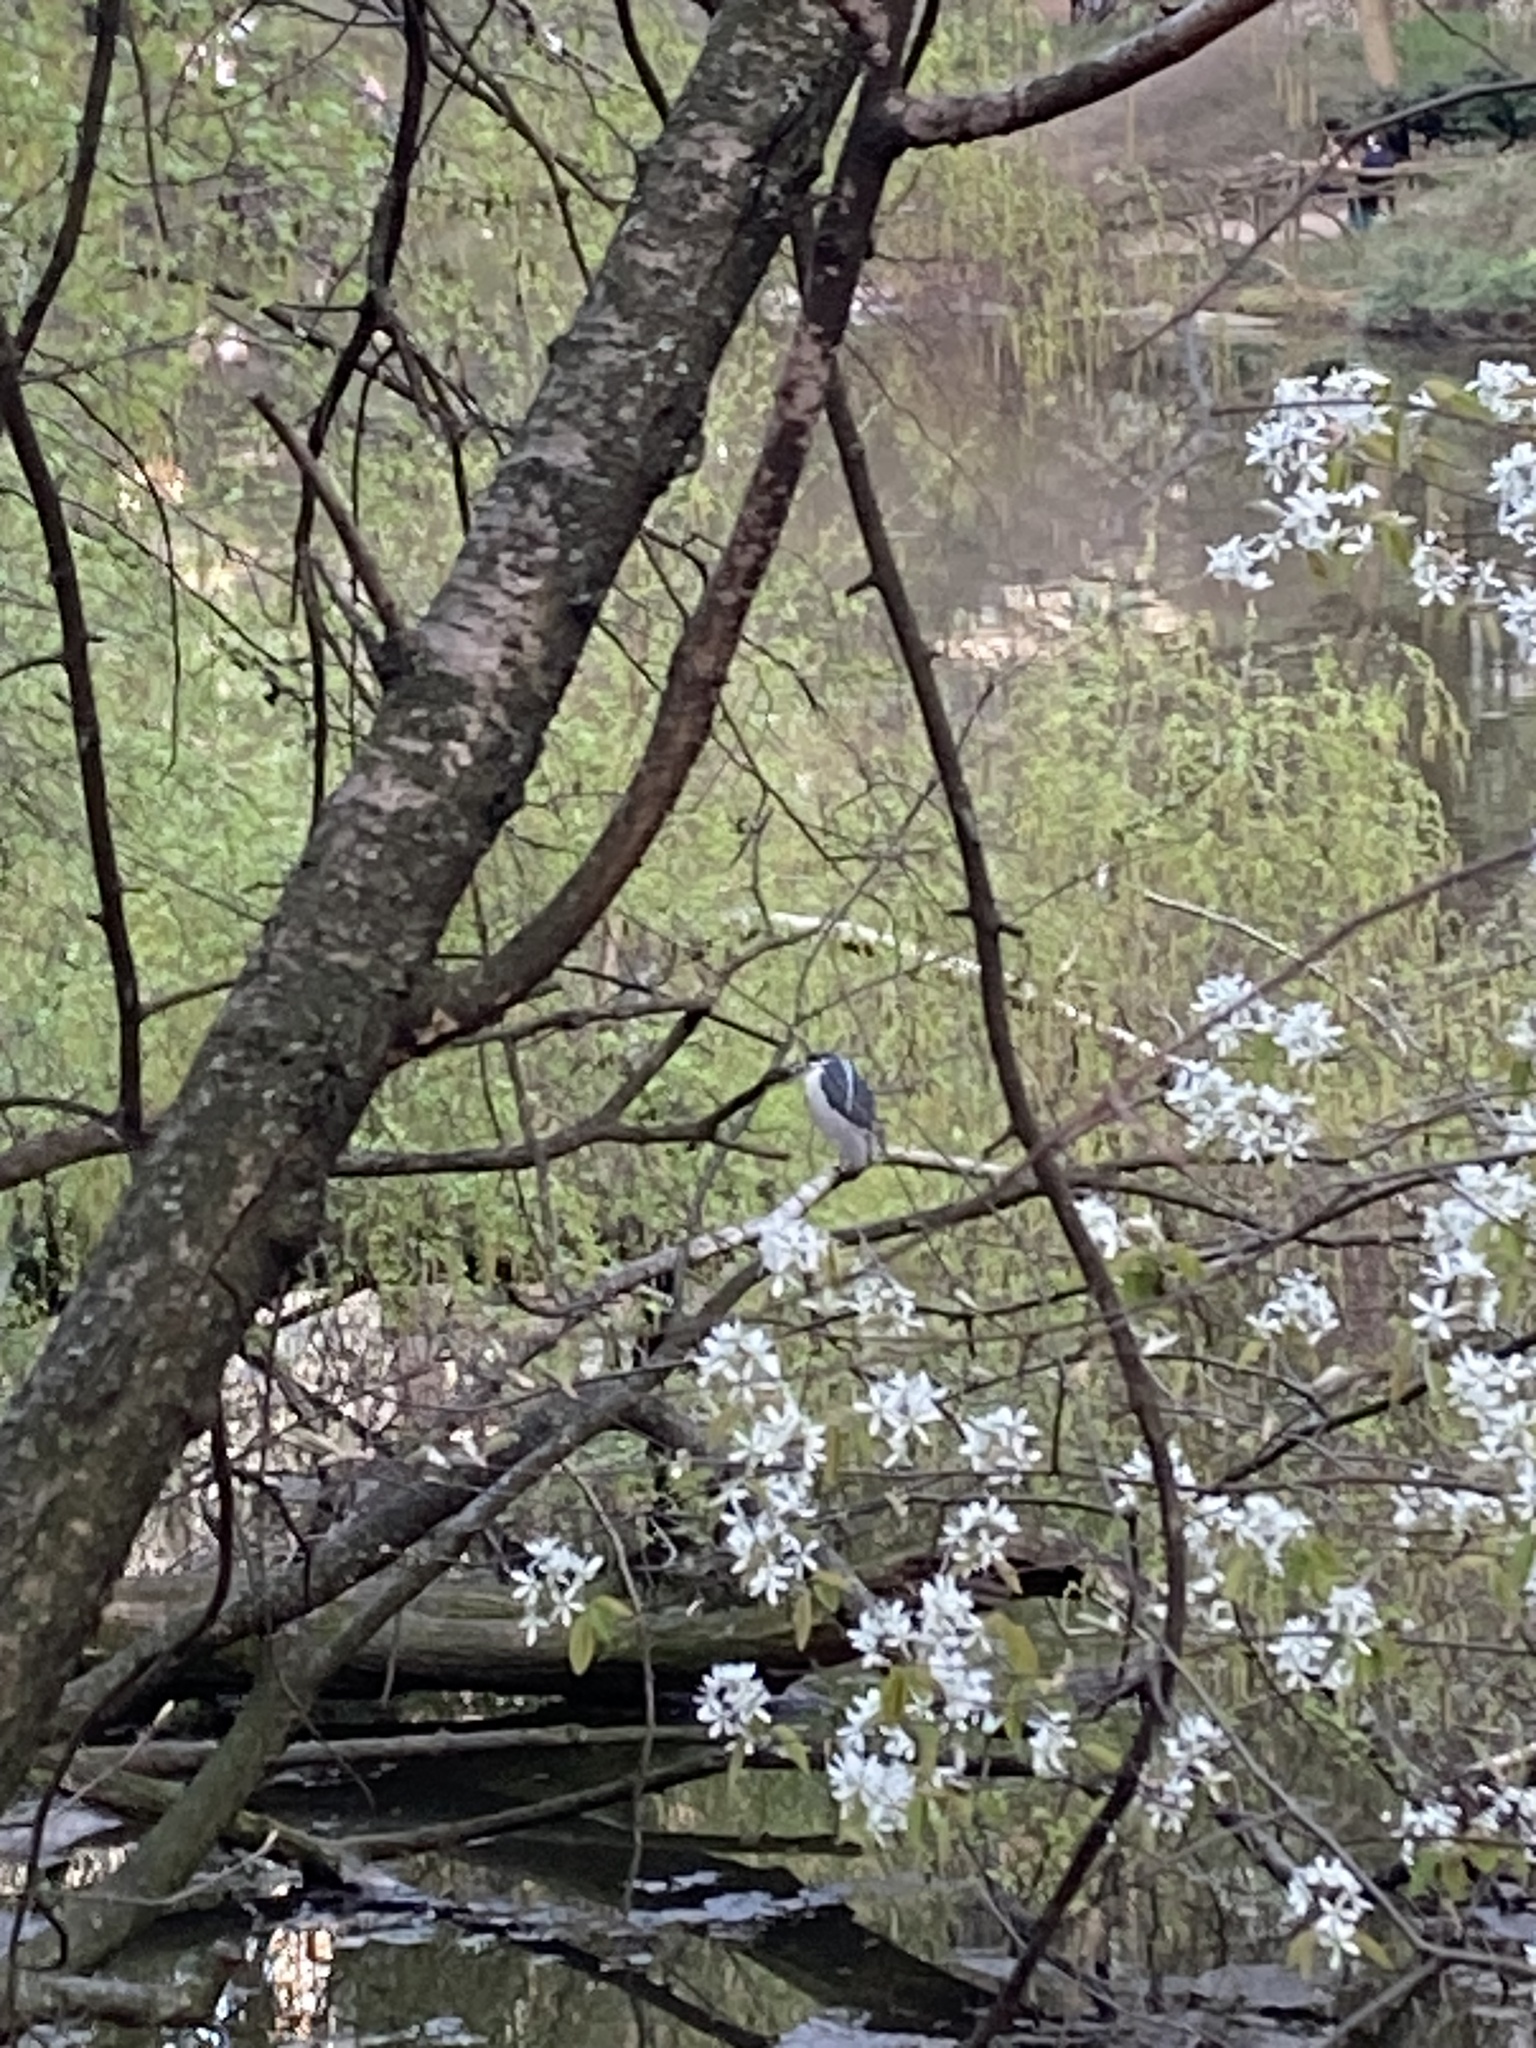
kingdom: Animalia
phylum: Chordata
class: Aves
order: Pelecaniformes
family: Ardeidae
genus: Nycticorax
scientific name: Nycticorax nycticorax
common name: Black-crowned night heron
